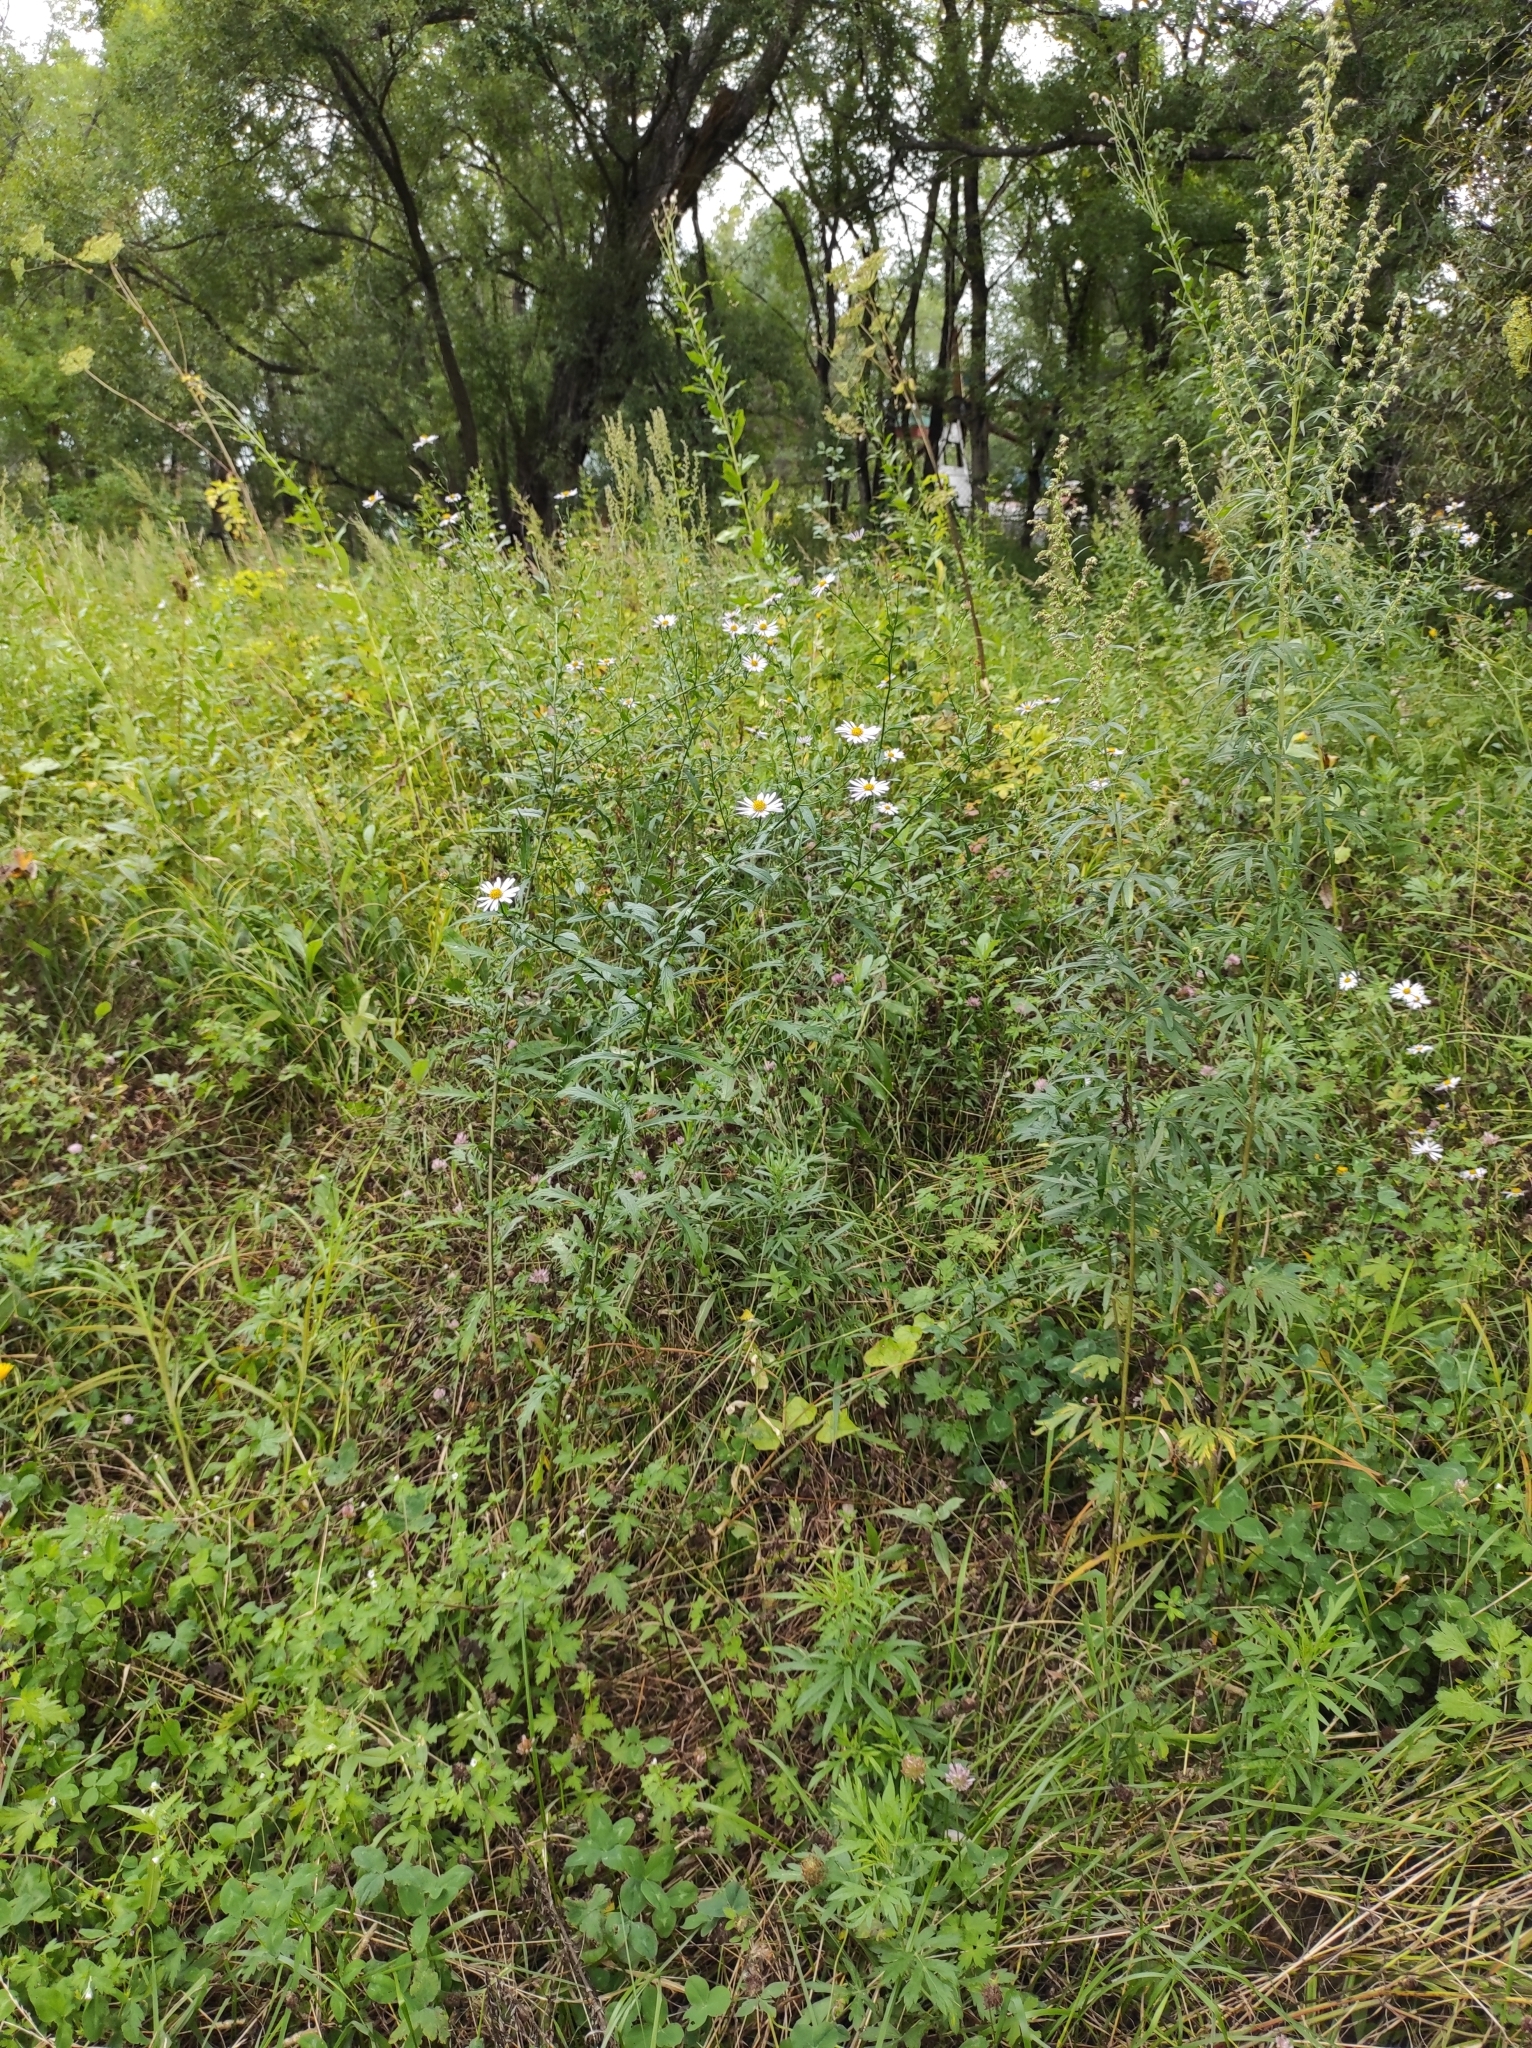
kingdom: Plantae
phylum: Tracheophyta
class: Magnoliopsida
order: Asterales
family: Asteraceae
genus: Kalimeris
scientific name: Kalimeris incisa
